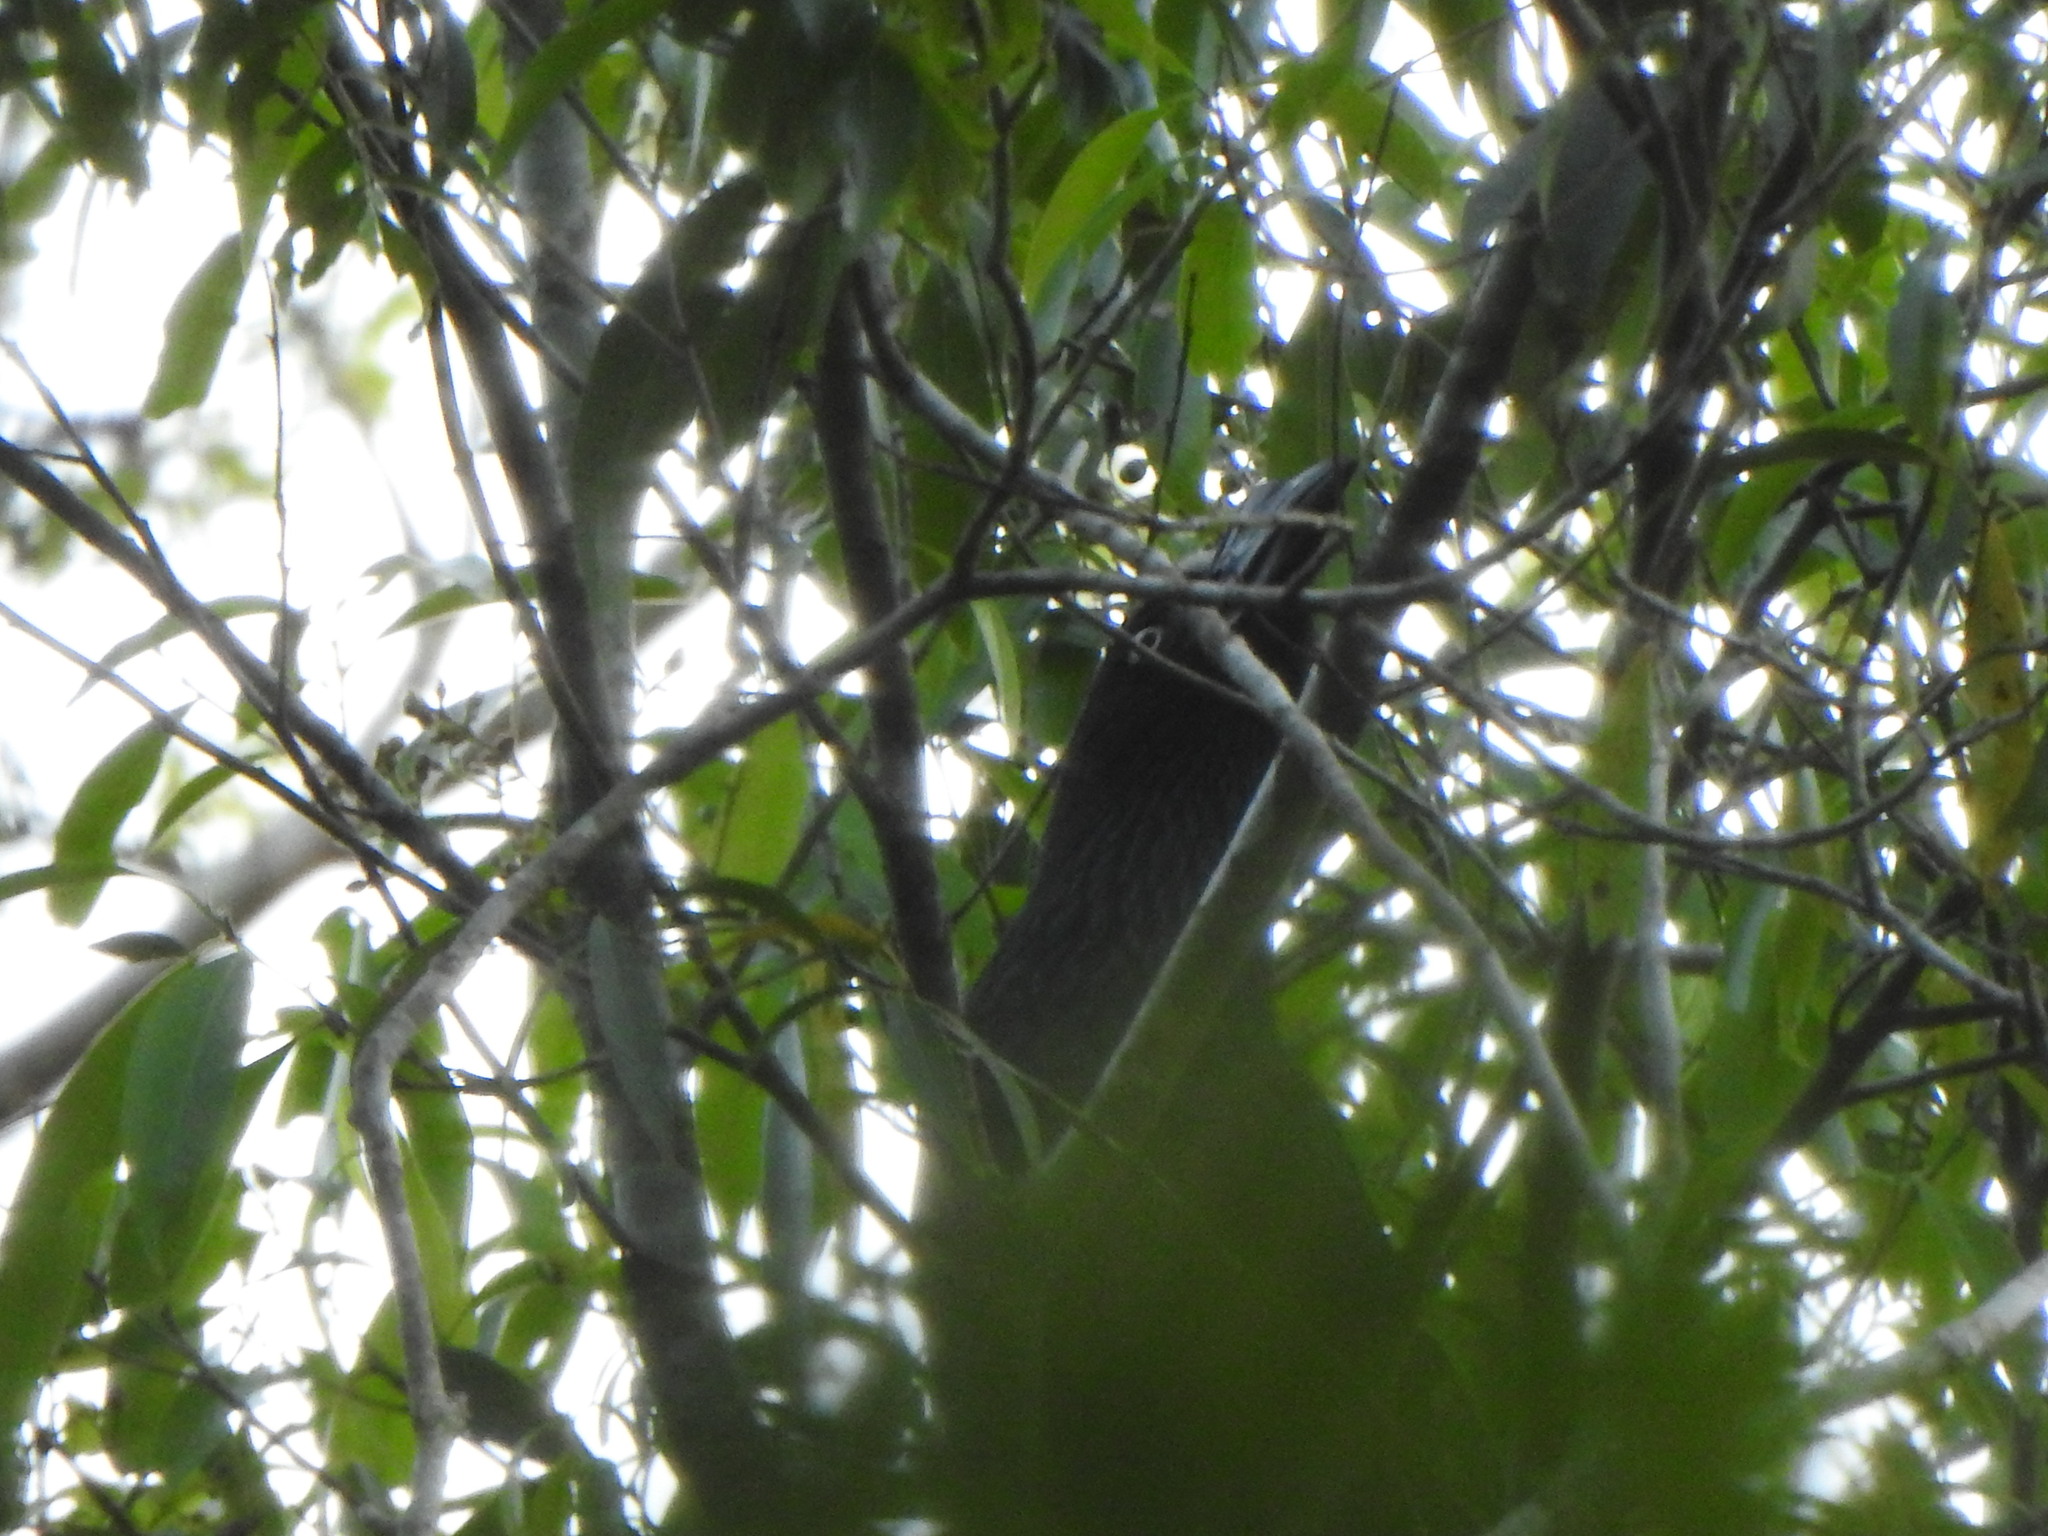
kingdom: Animalia
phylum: Chordata
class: Aves
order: Cuculiformes
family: Cuculidae
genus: Crotophaga
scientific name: Crotophaga major
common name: Greater ani
